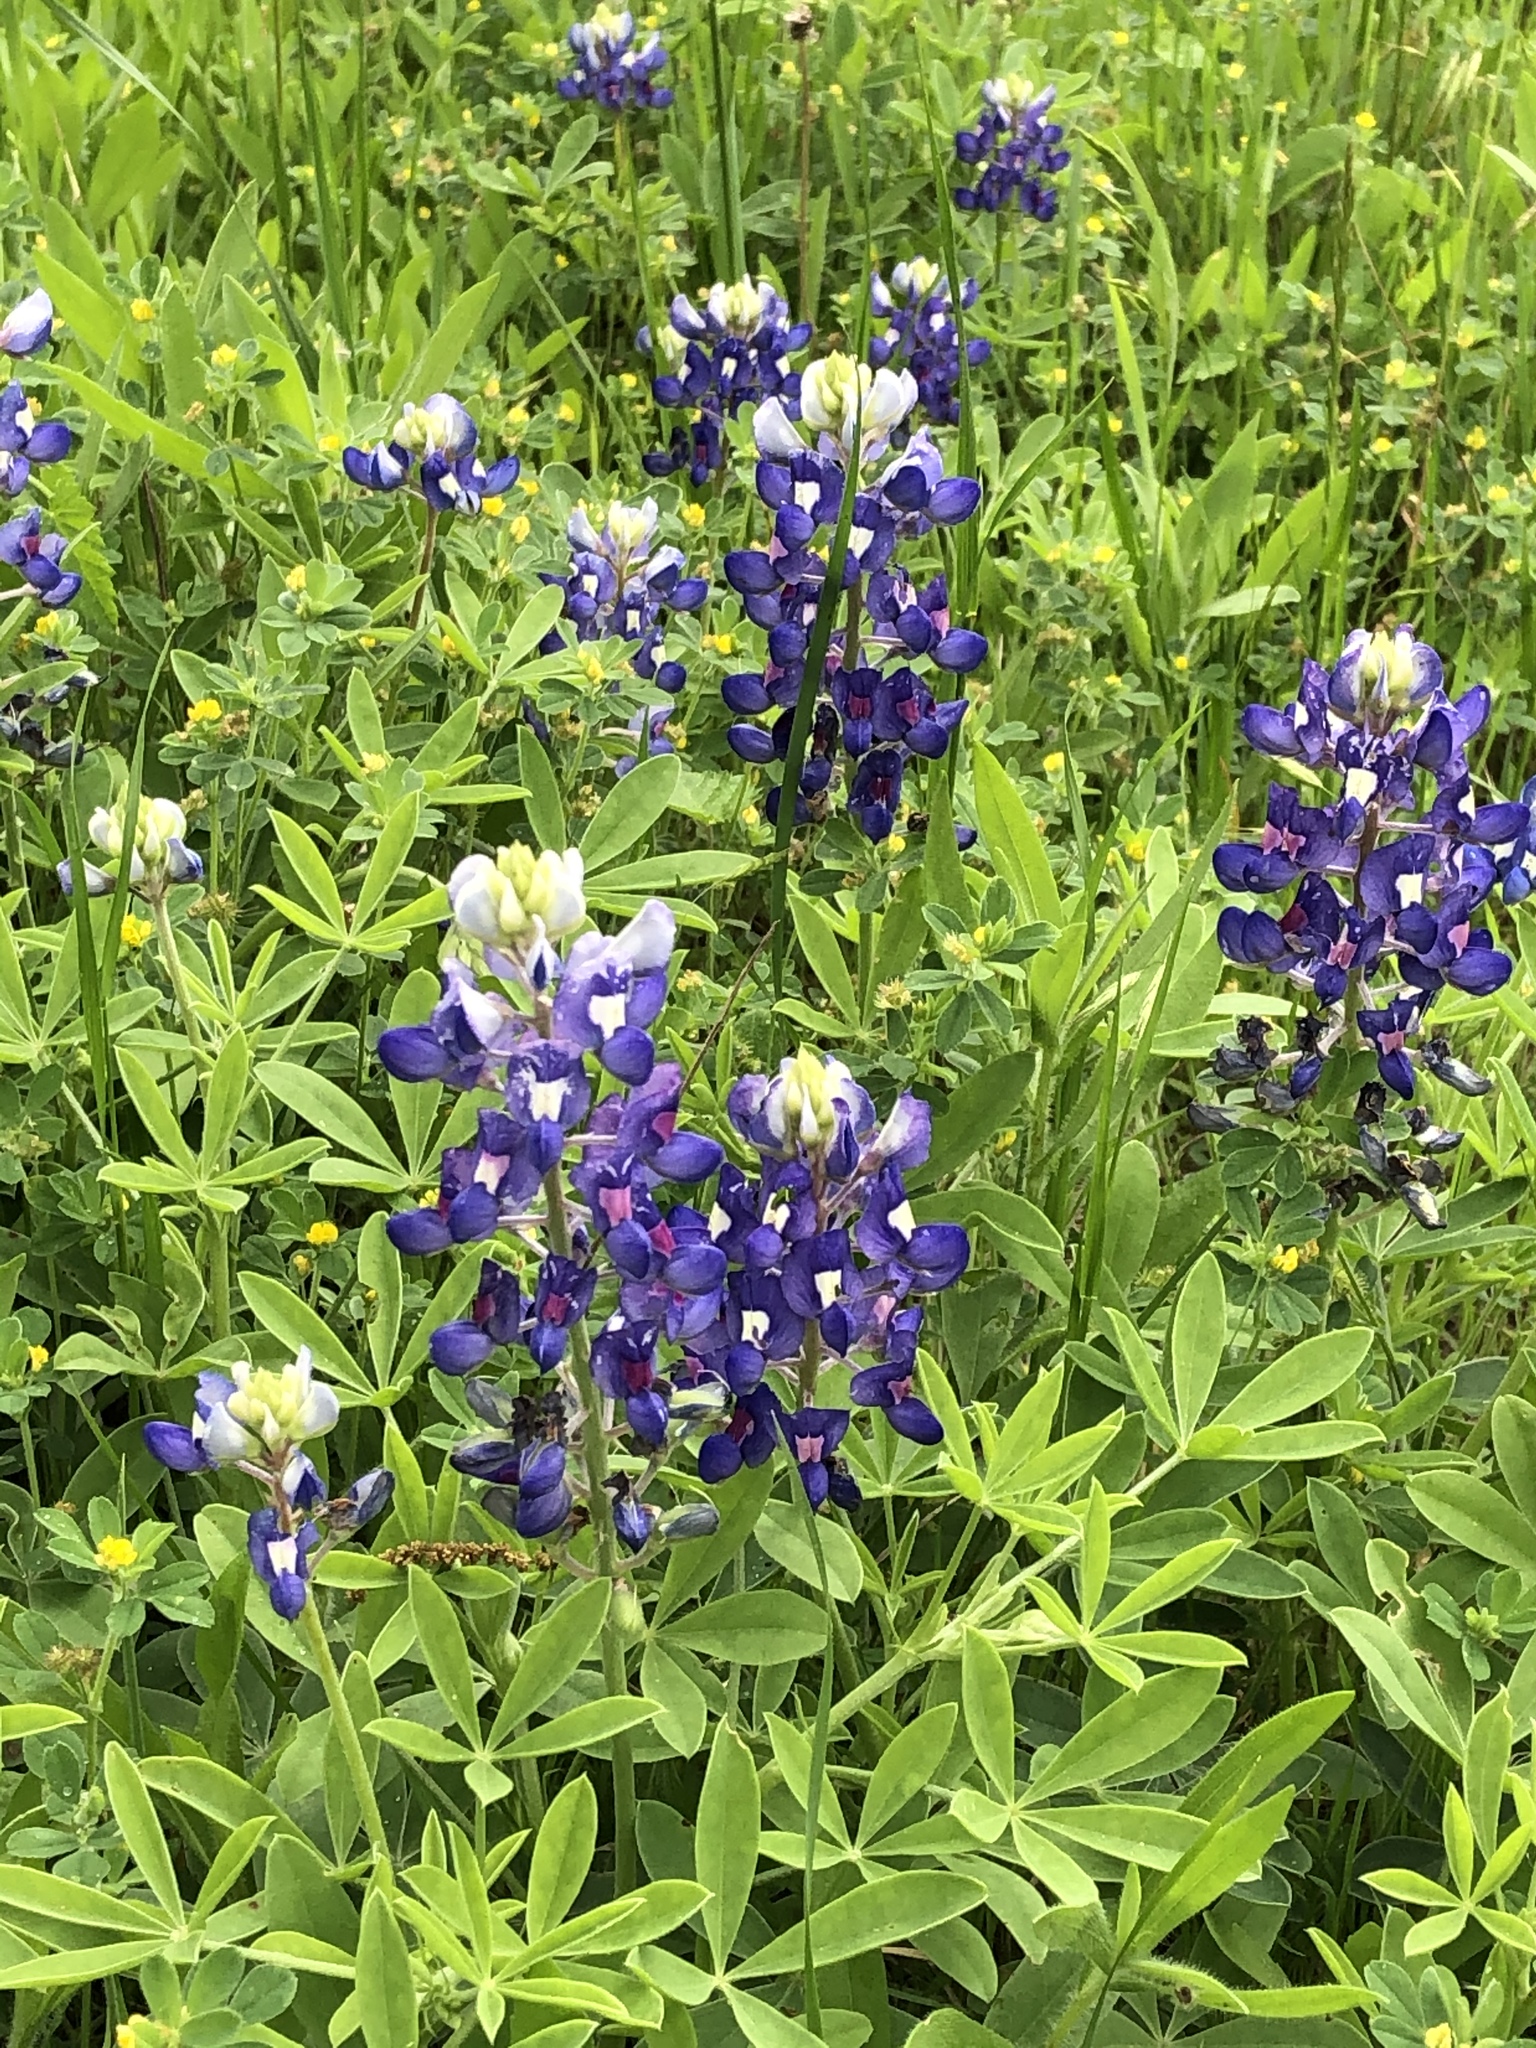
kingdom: Plantae
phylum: Tracheophyta
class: Magnoliopsida
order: Fabales
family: Fabaceae
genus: Lupinus
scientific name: Lupinus texensis
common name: Texas bluebonnet
